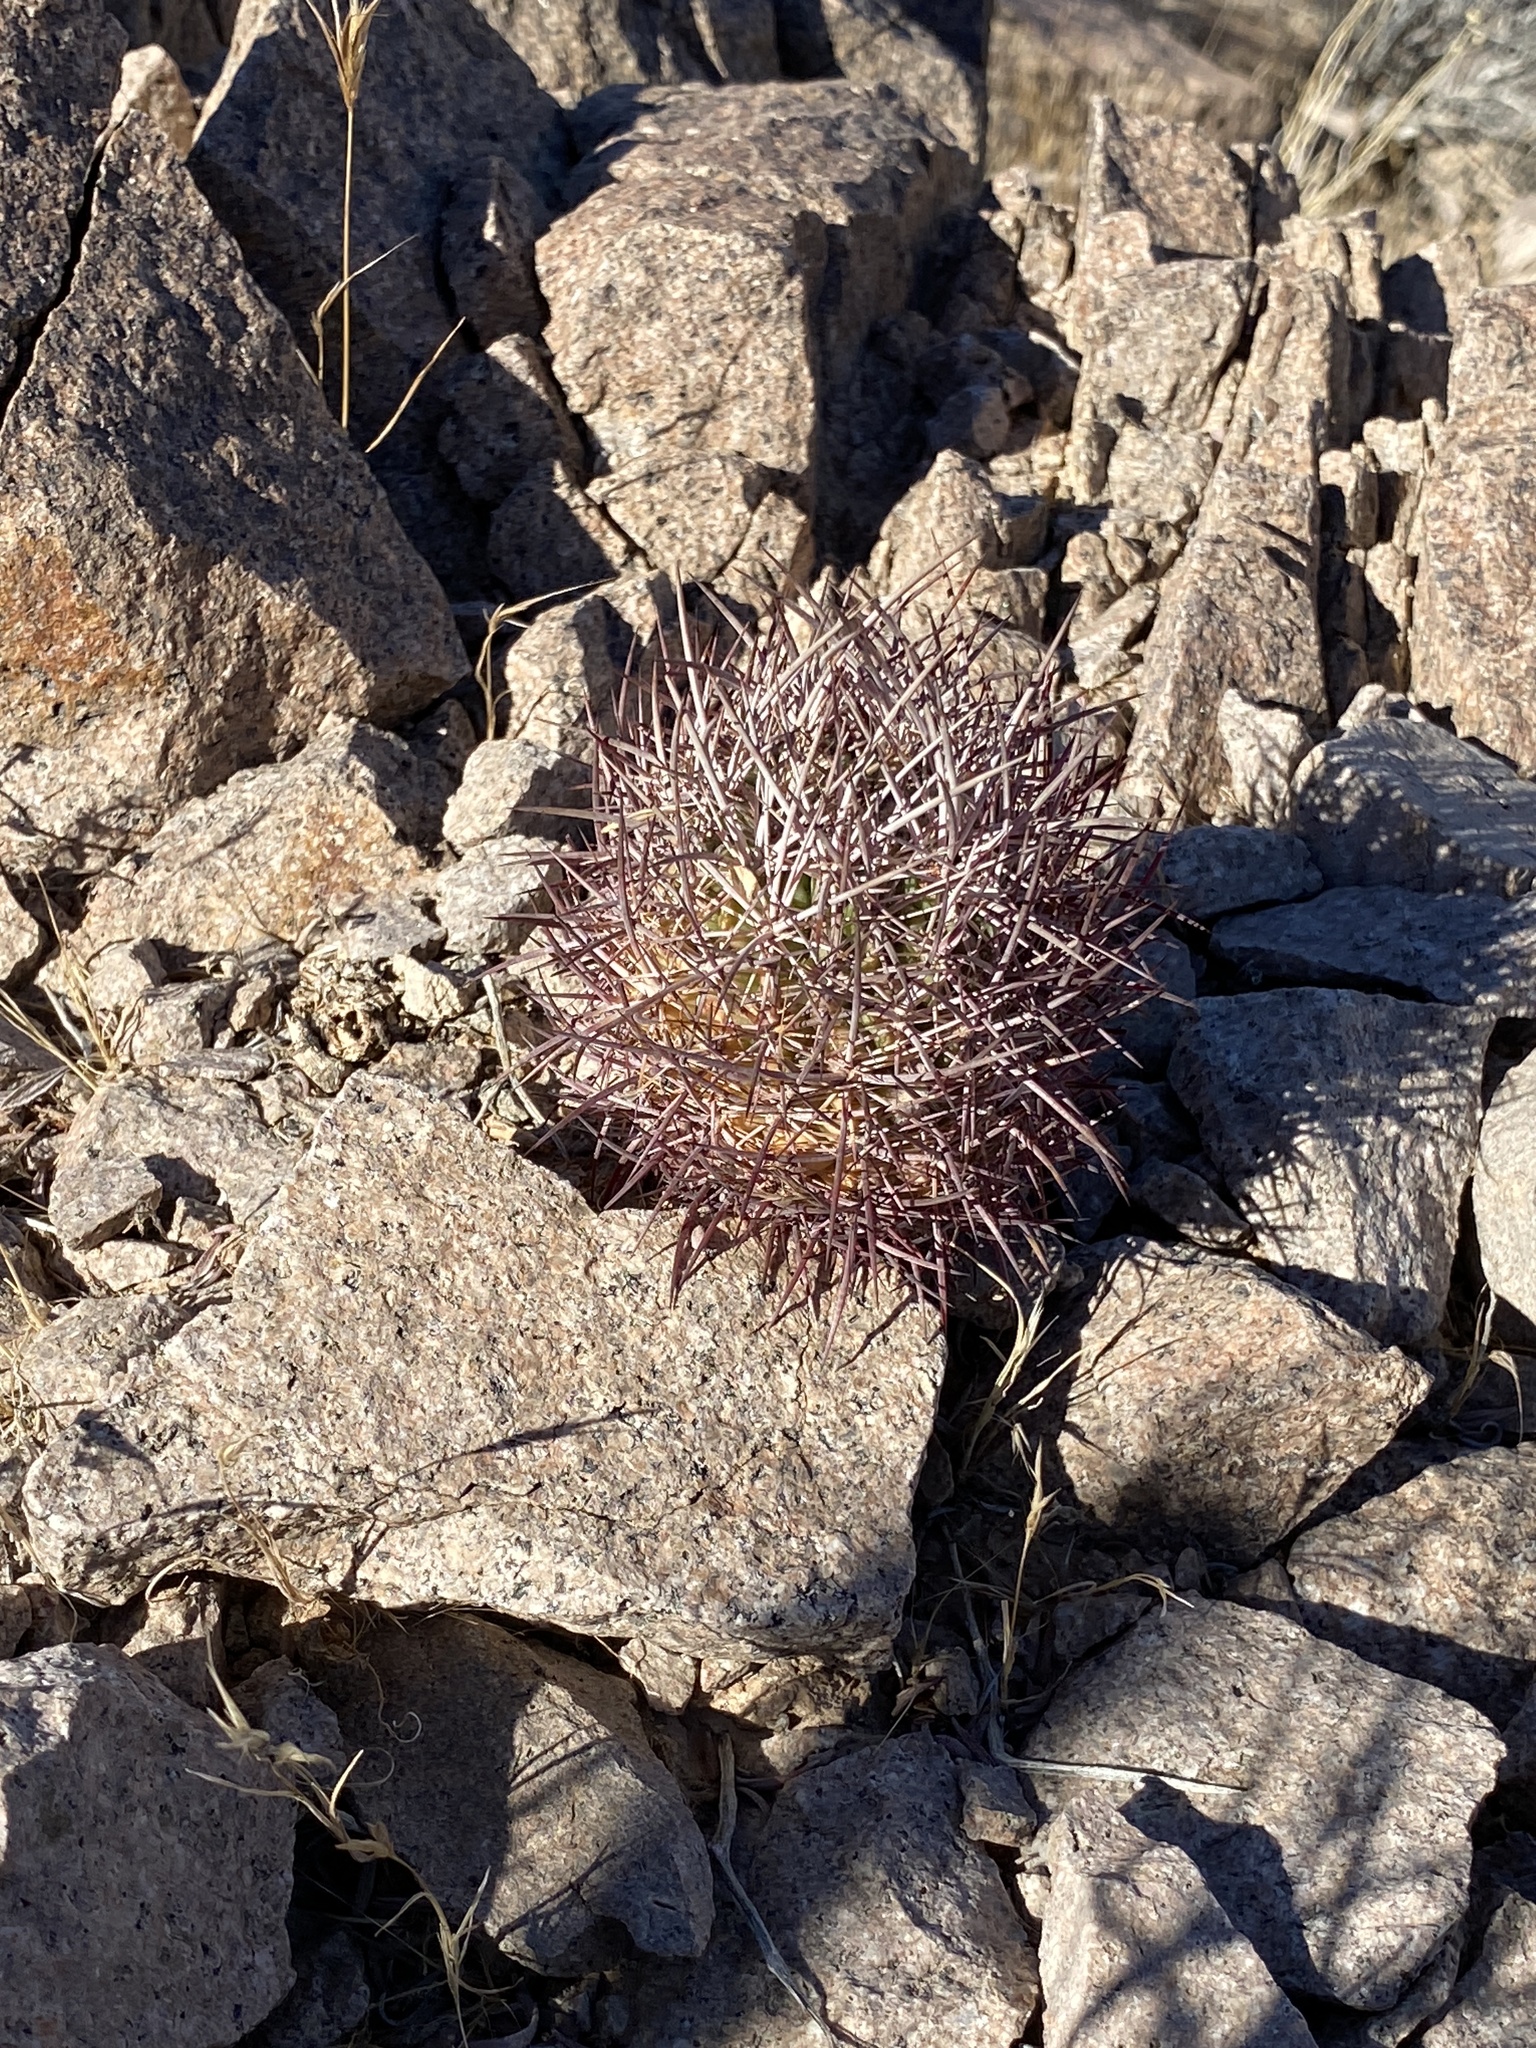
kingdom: Plantae
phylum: Tracheophyta
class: Magnoliopsida
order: Caryophyllales
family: Cactaceae
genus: Sclerocactus
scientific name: Sclerocactus johnsonii
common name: Eight-spine fishhook cactus
